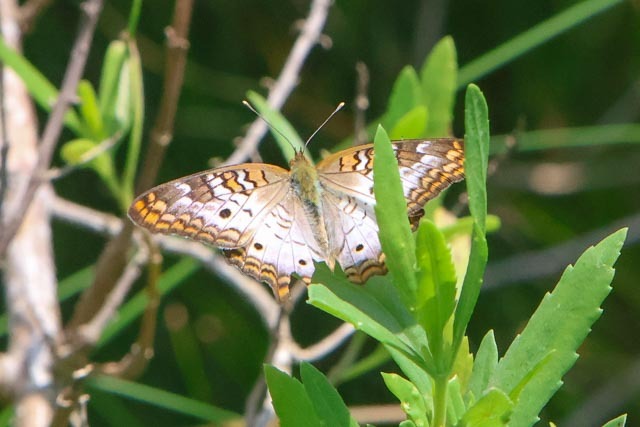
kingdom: Animalia
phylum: Arthropoda
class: Insecta
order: Lepidoptera
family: Nymphalidae
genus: Anartia
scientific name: Anartia jatrophae
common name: White peacock
